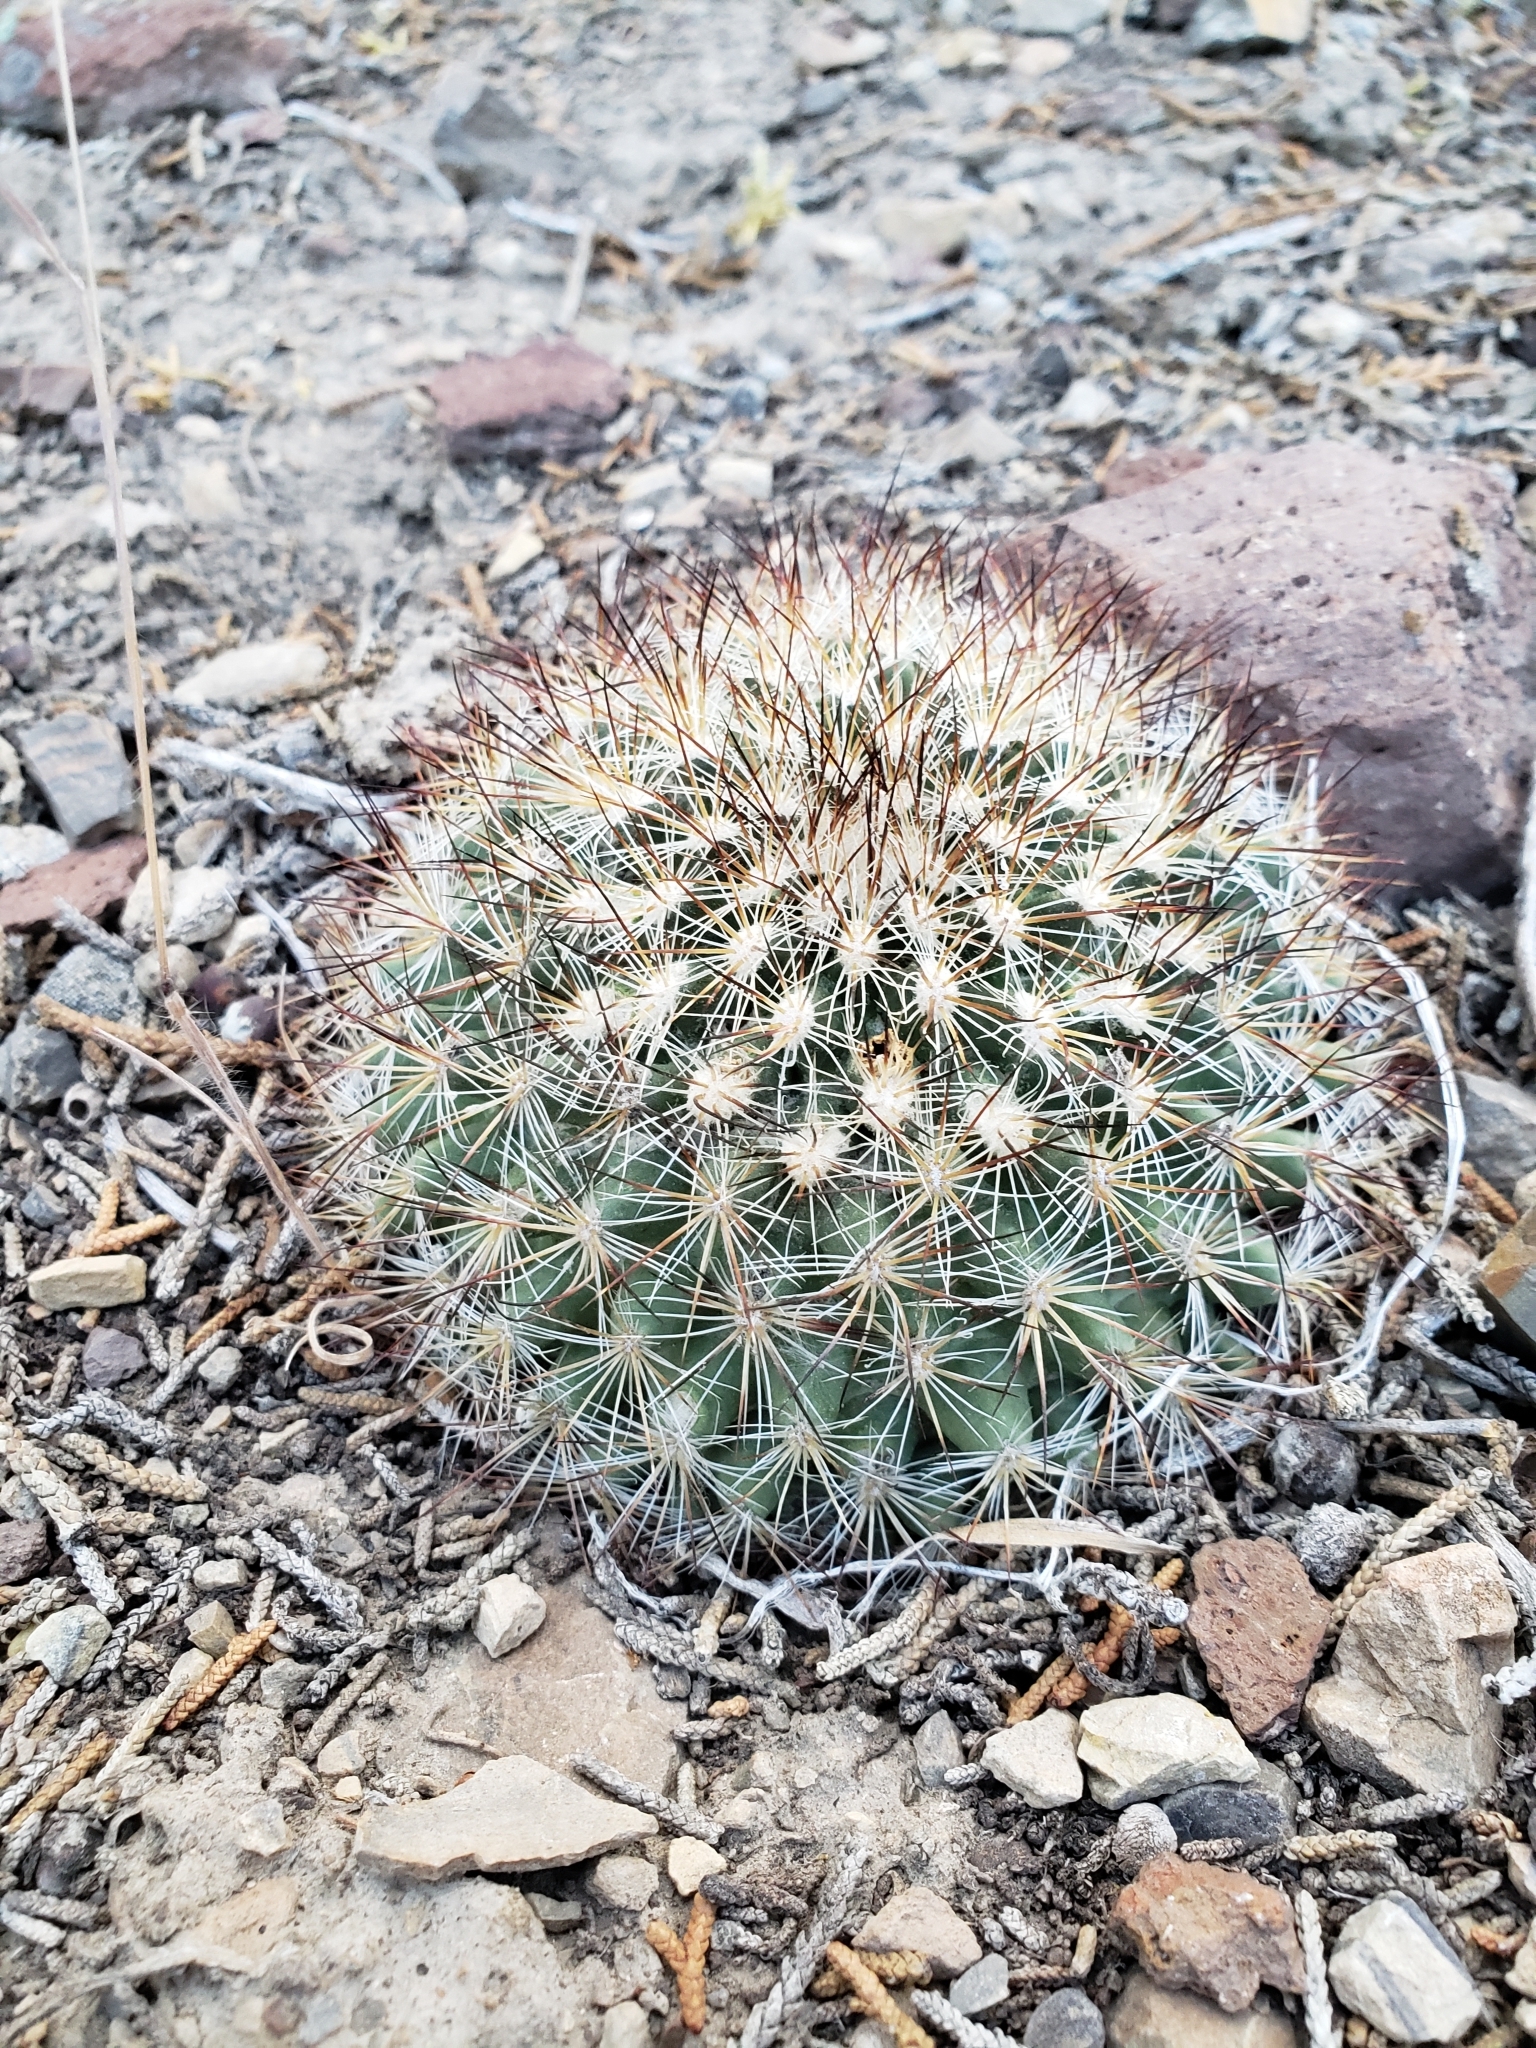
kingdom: Plantae
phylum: Tracheophyta
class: Magnoliopsida
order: Caryophyllales
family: Cactaceae
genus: Pediocactus
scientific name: Pediocactus simpsonii
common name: Simpson's hedgehog cactus
